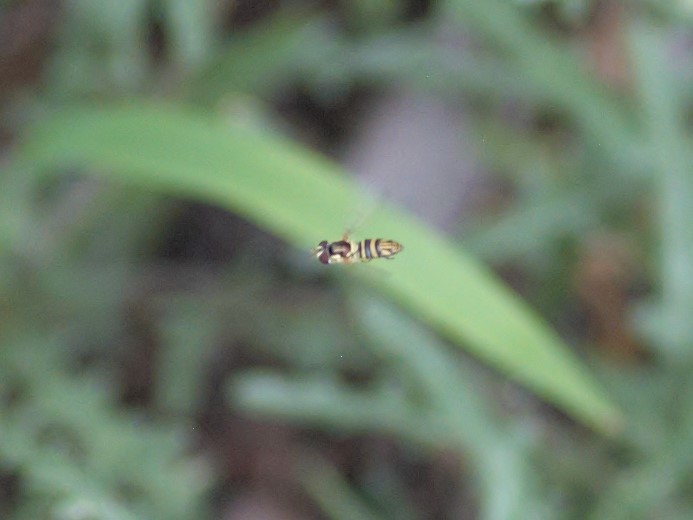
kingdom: Animalia
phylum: Arthropoda
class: Insecta
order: Diptera
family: Syrphidae
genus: Allograpta
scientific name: Allograpta
